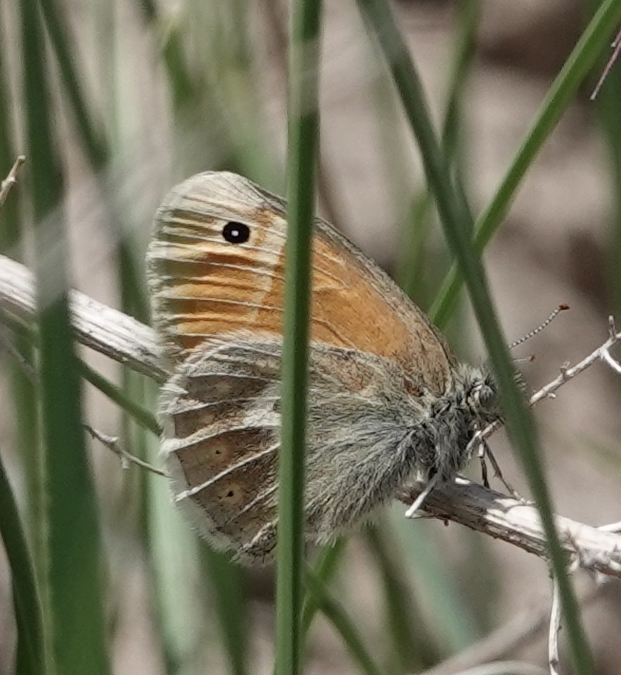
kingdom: Animalia
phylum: Arthropoda
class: Insecta
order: Lepidoptera
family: Nymphalidae
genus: Coenonympha
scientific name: Coenonympha california
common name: Common ringlet
